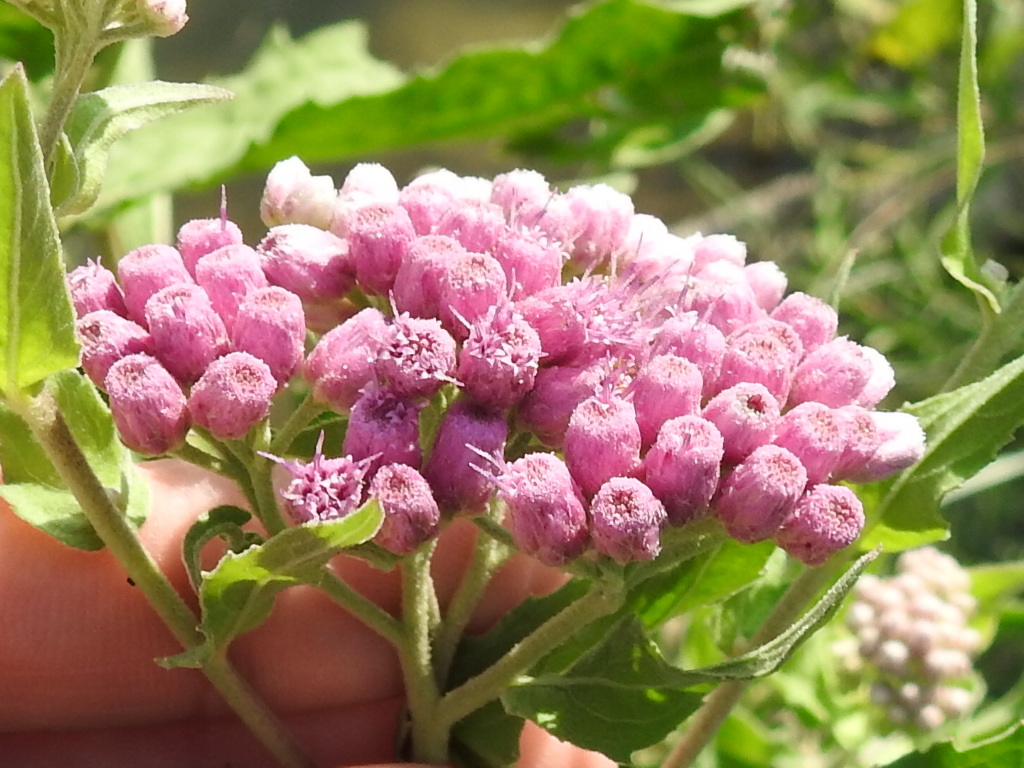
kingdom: Plantae
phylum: Tracheophyta
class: Magnoliopsida
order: Asterales
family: Asteraceae
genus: Pluchea
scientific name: Pluchea odorata
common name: Saltmarsh fleabane
